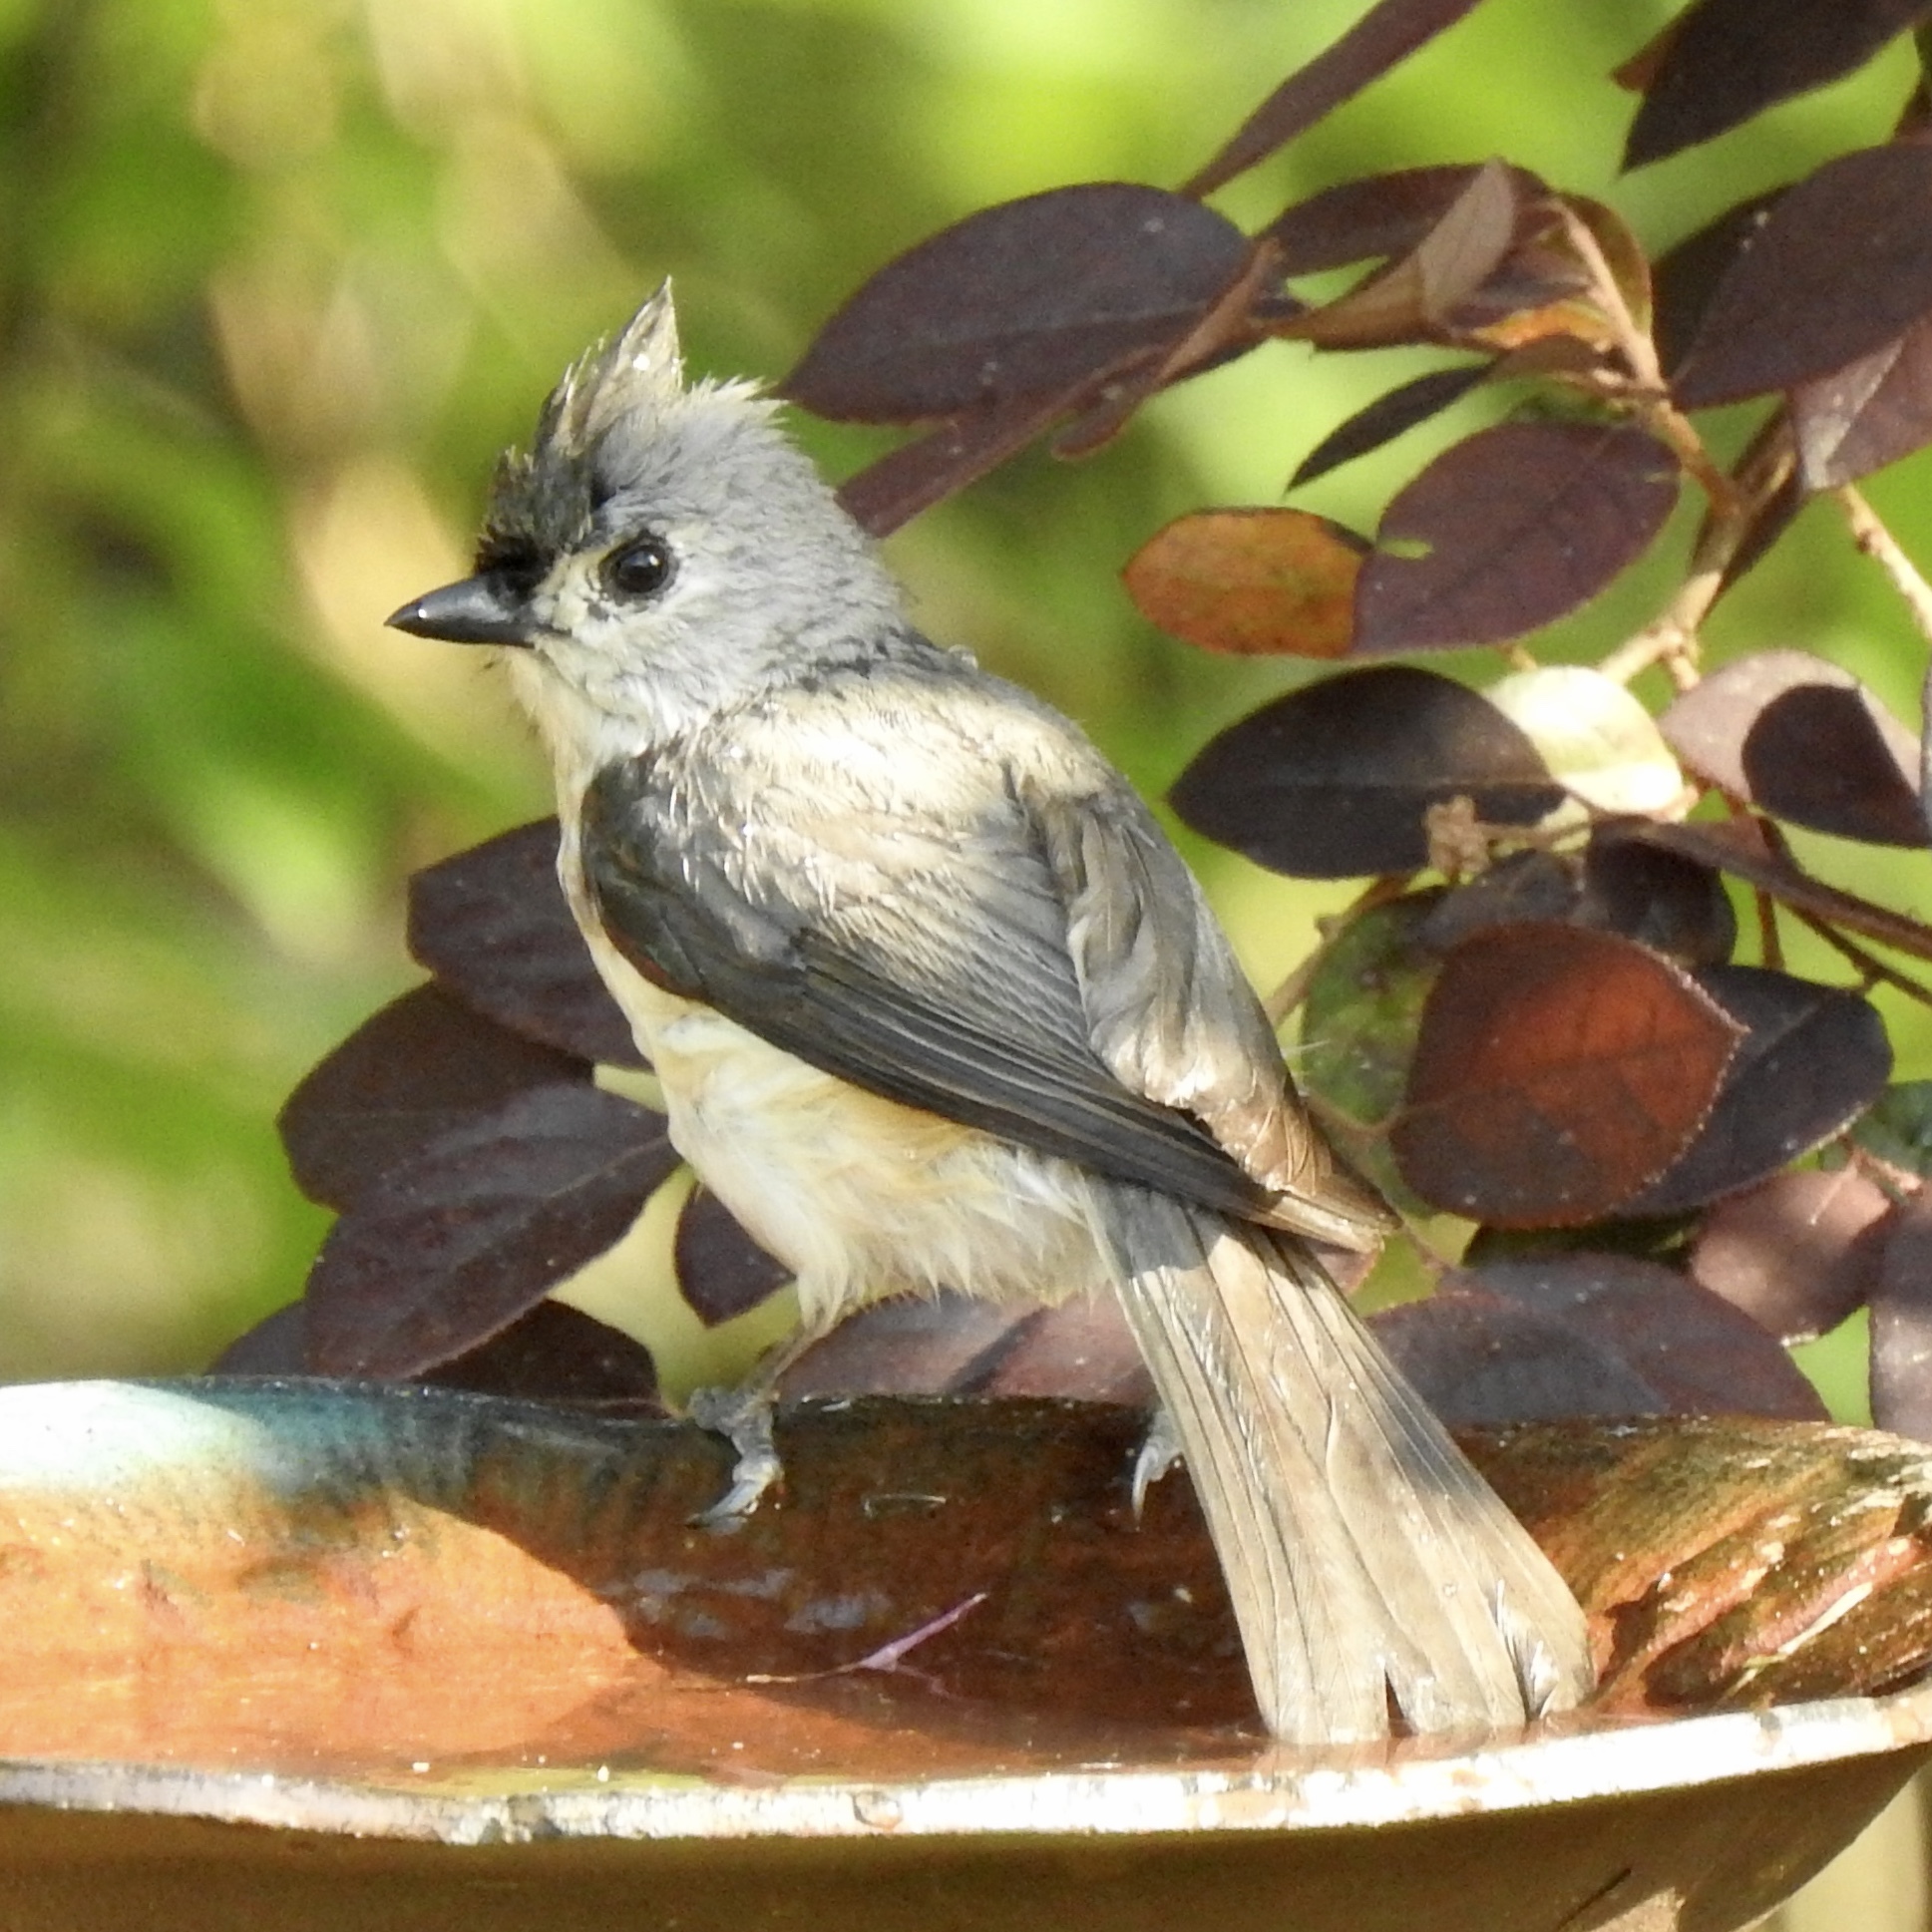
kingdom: Animalia
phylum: Chordata
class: Aves
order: Passeriformes
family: Paridae
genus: Baeolophus
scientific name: Baeolophus bicolor
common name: Tufted titmouse
